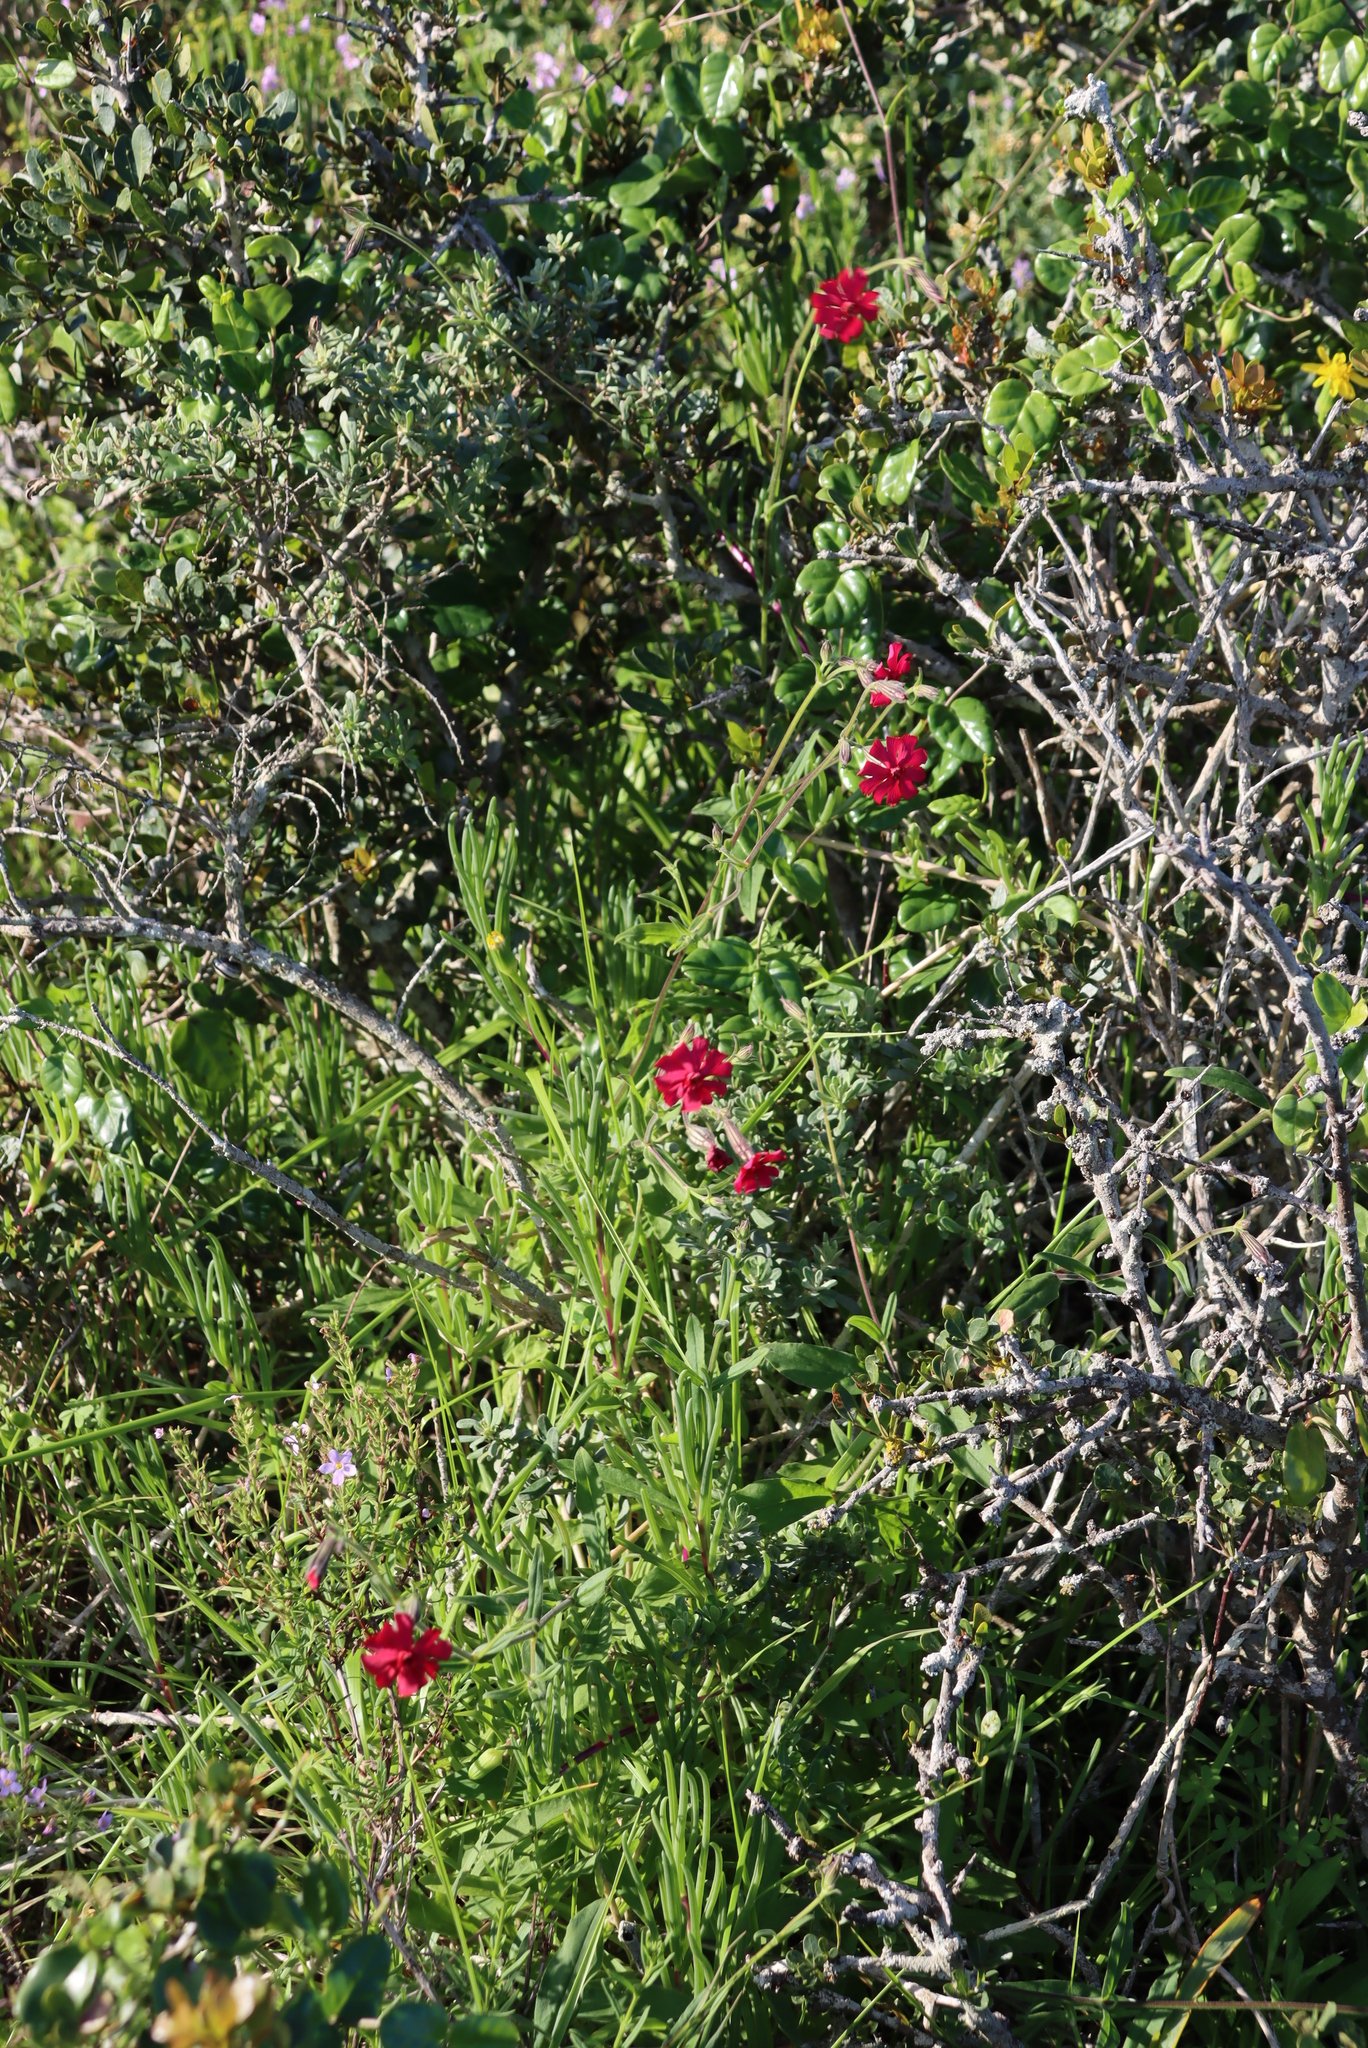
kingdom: Plantae
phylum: Tracheophyta
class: Magnoliopsida
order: Caryophyllales
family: Caryophyllaceae
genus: Silene
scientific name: Silene ornata
